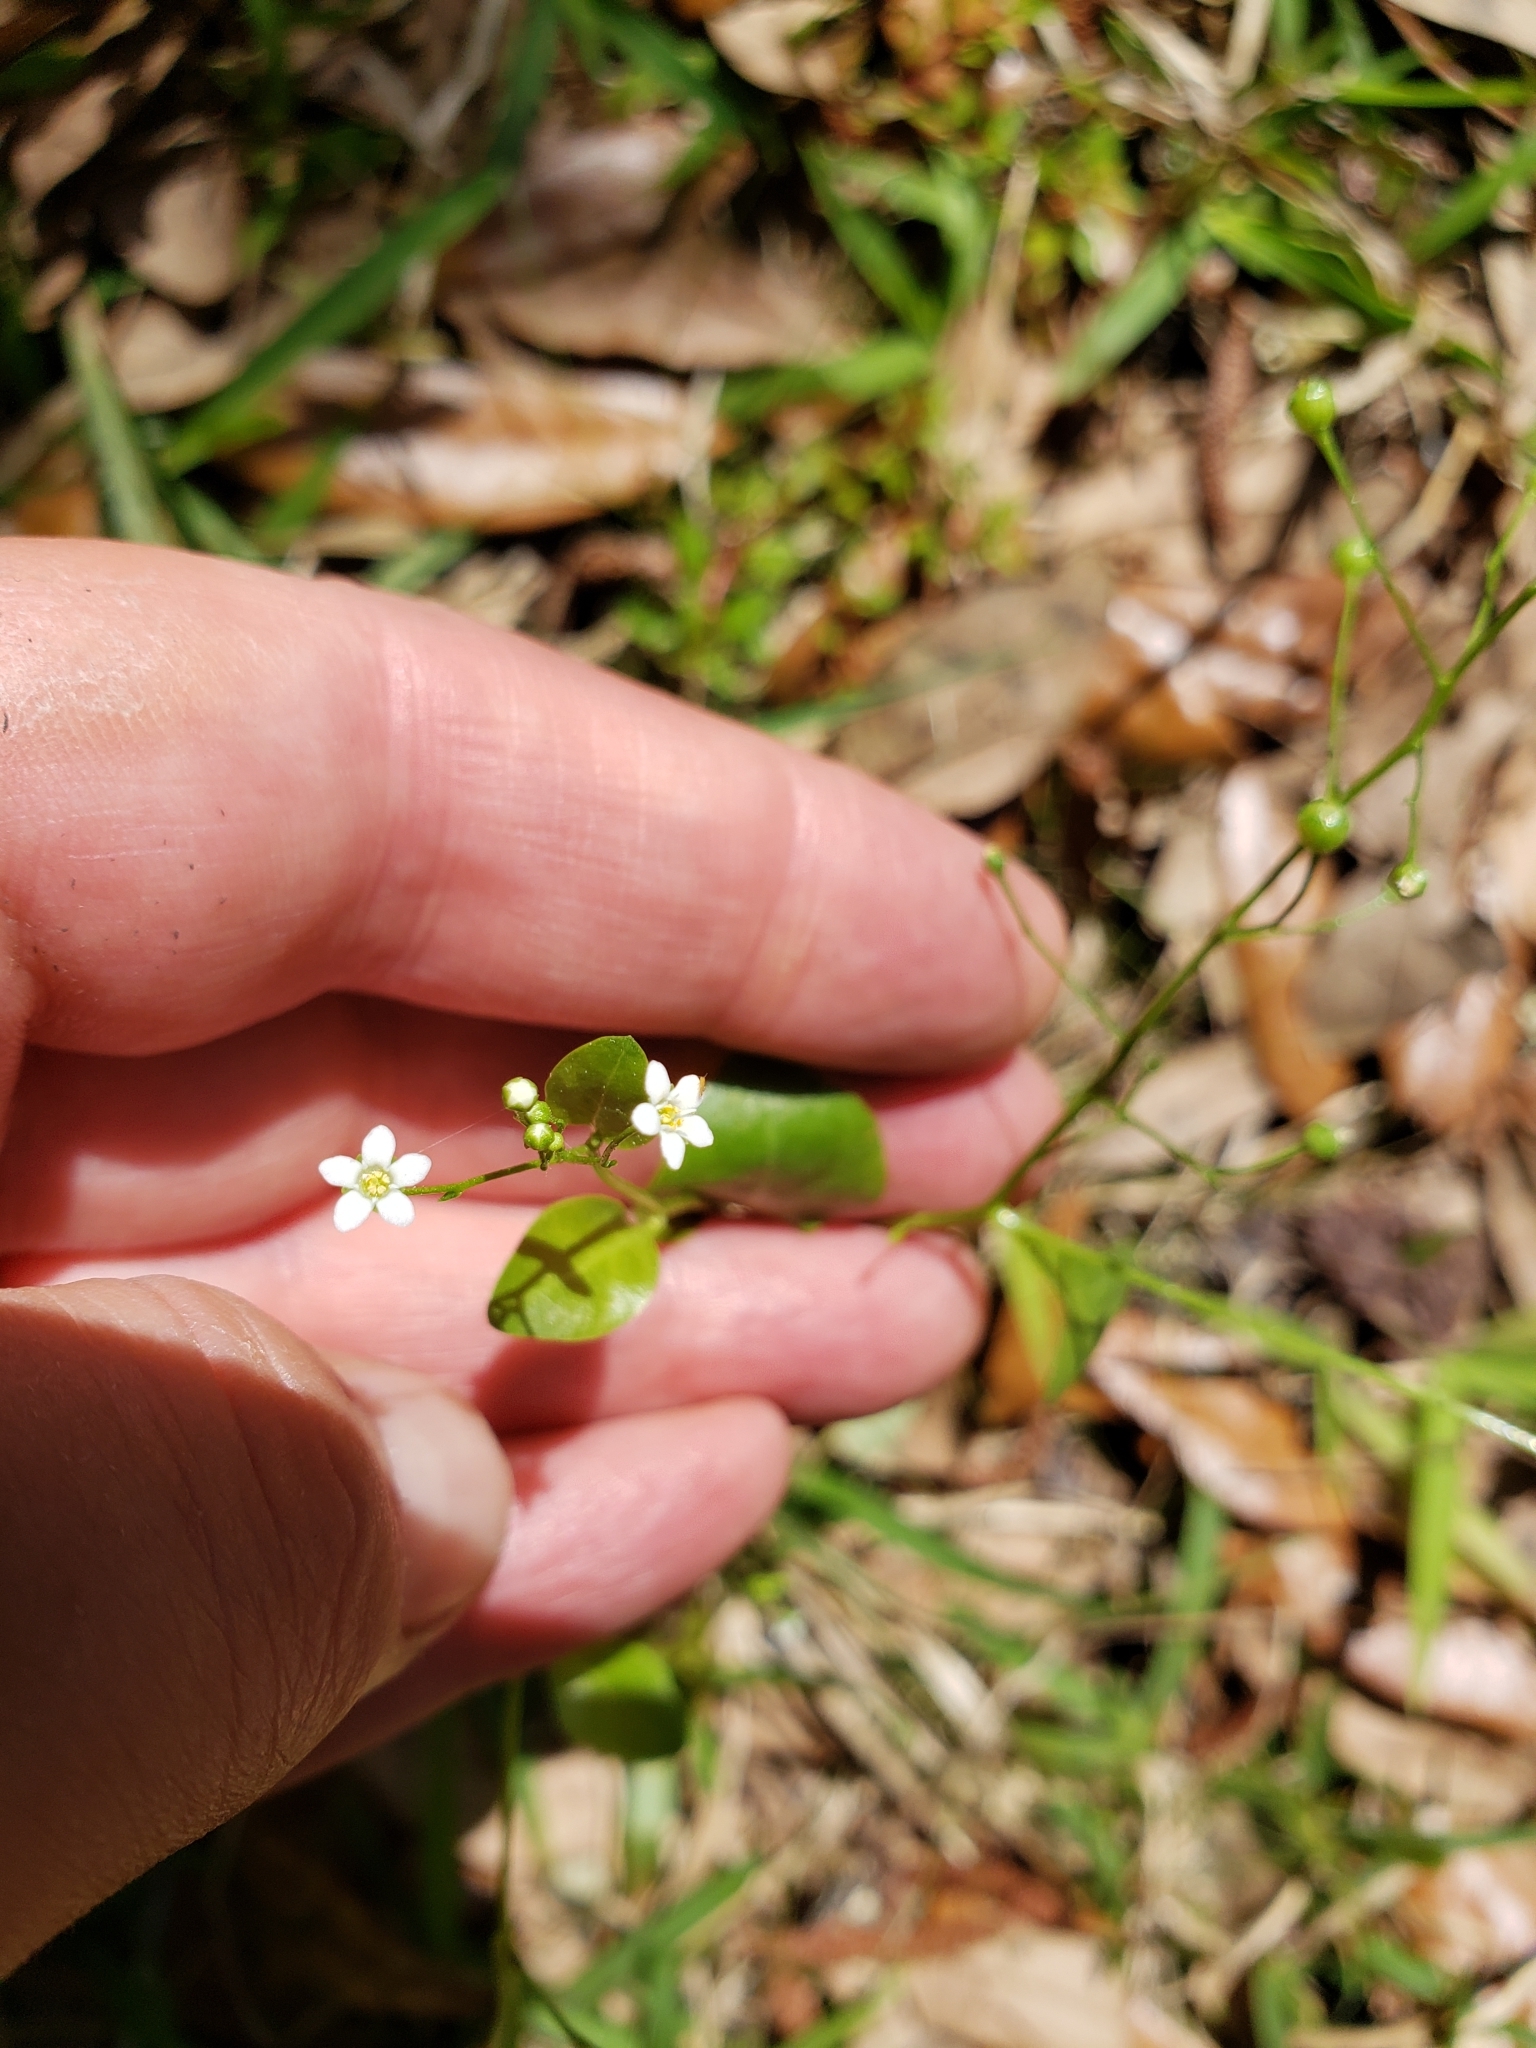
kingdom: Plantae
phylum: Tracheophyta
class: Magnoliopsida
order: Ericales
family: Primulaceae
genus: Samolus
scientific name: Samolus parviflorus
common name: False water pimpernel
